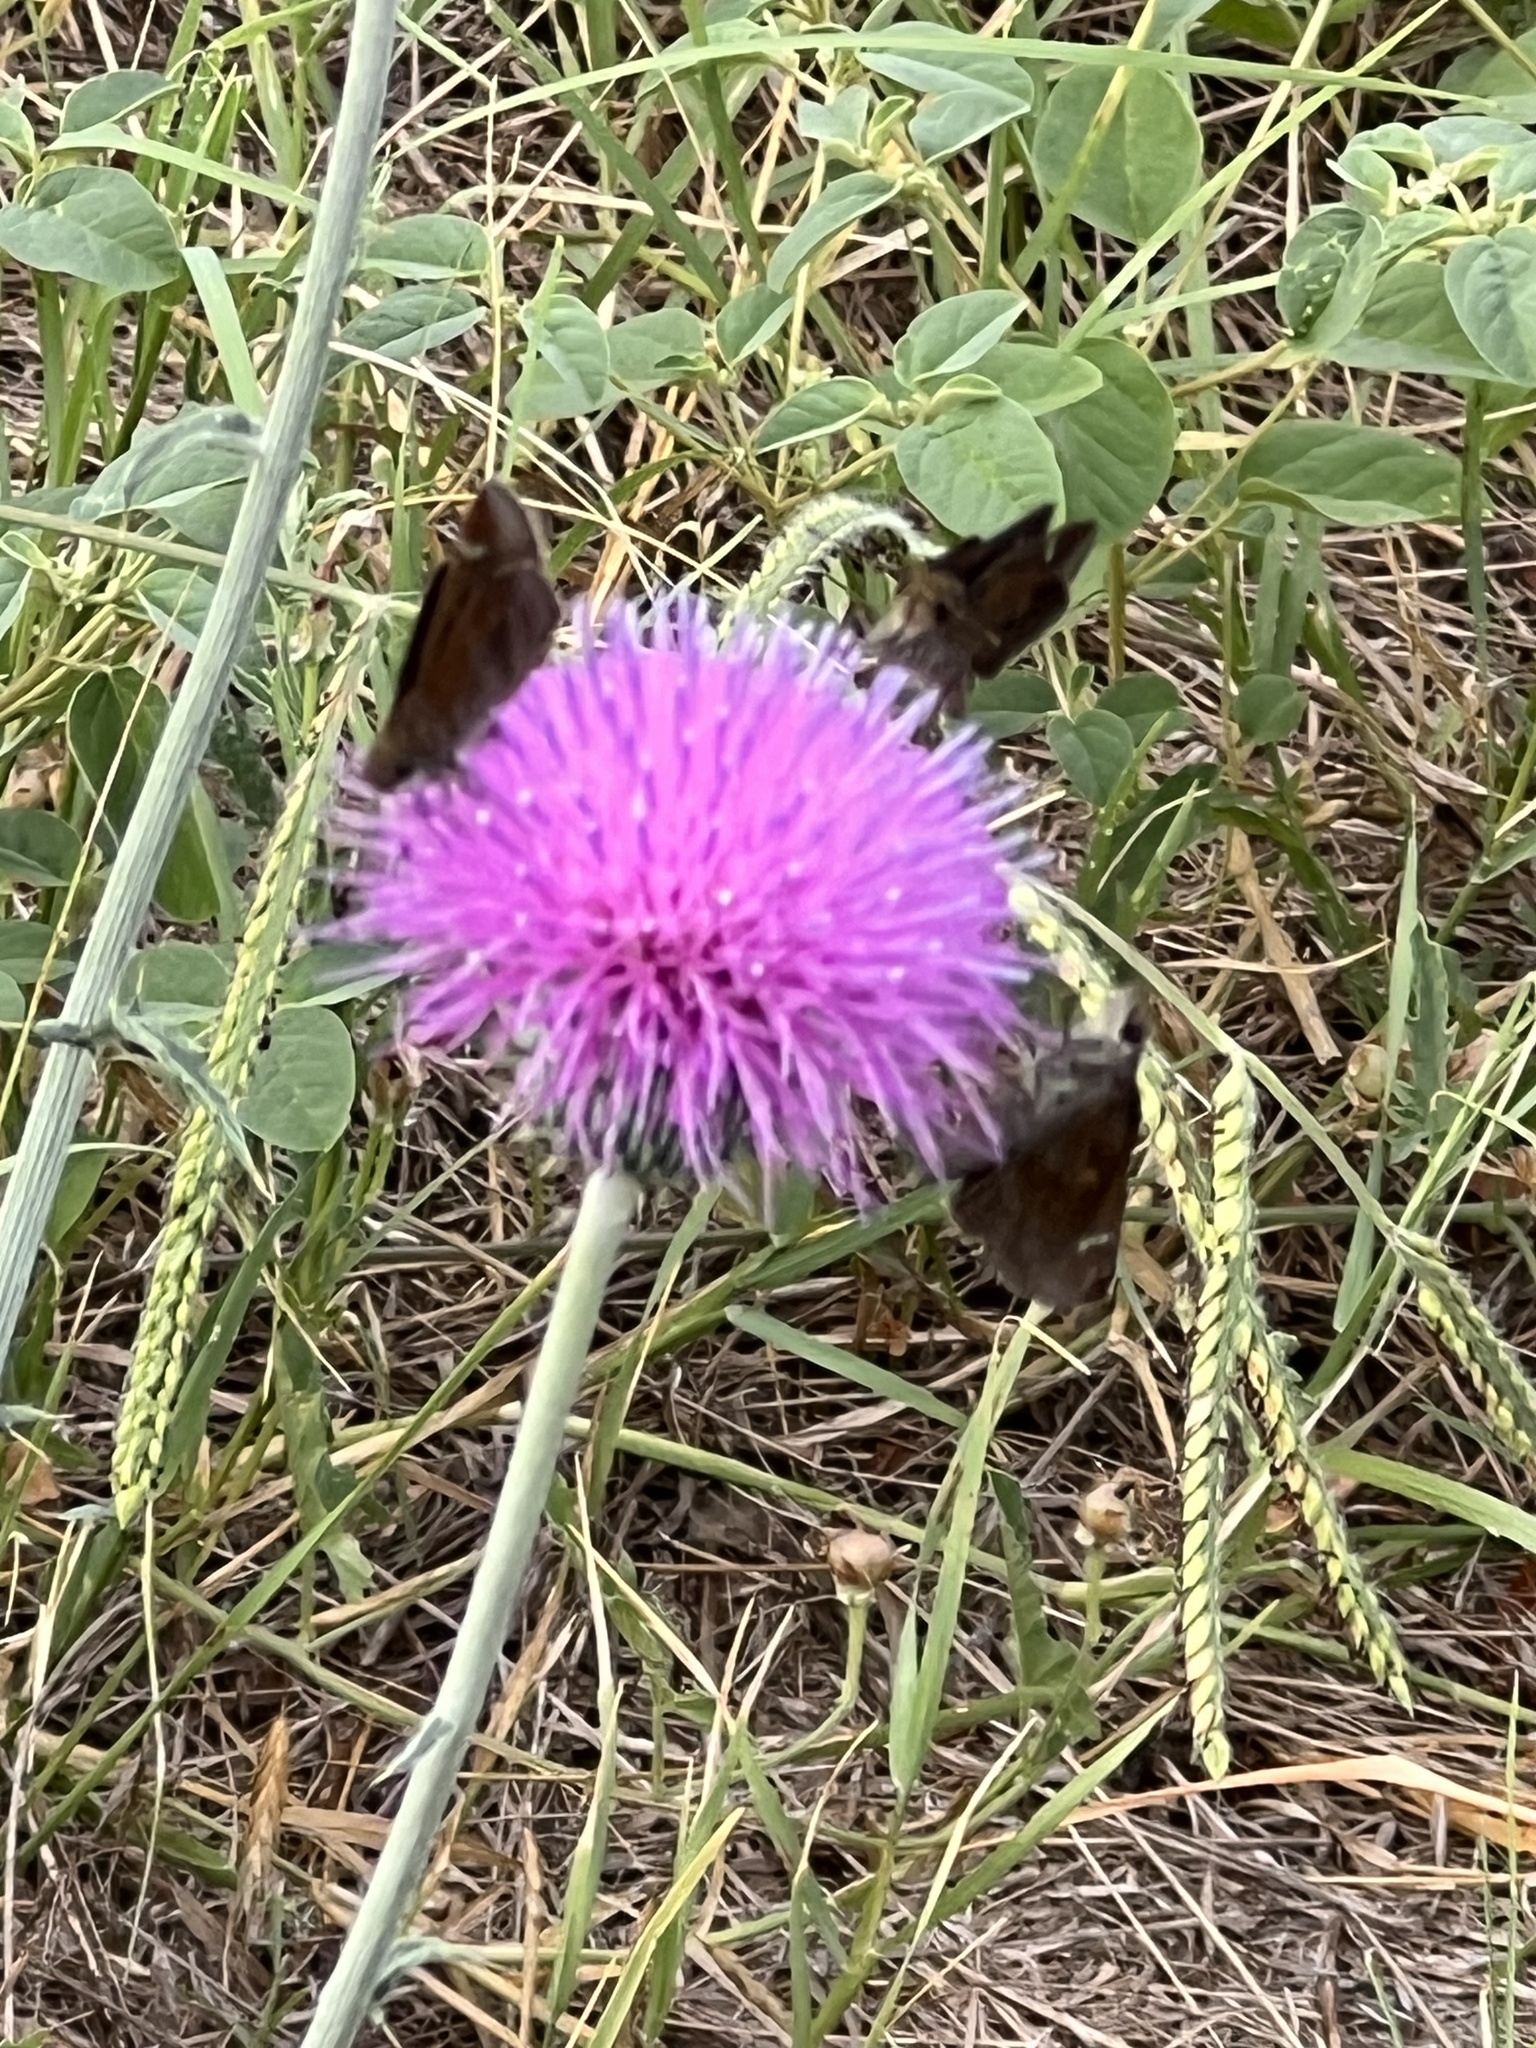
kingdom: Animalia
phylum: Arthropoda
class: Insecta
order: Lepidoptera
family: Hesperiidae
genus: Lerema
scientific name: Lerema accius
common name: Clouded skipper
